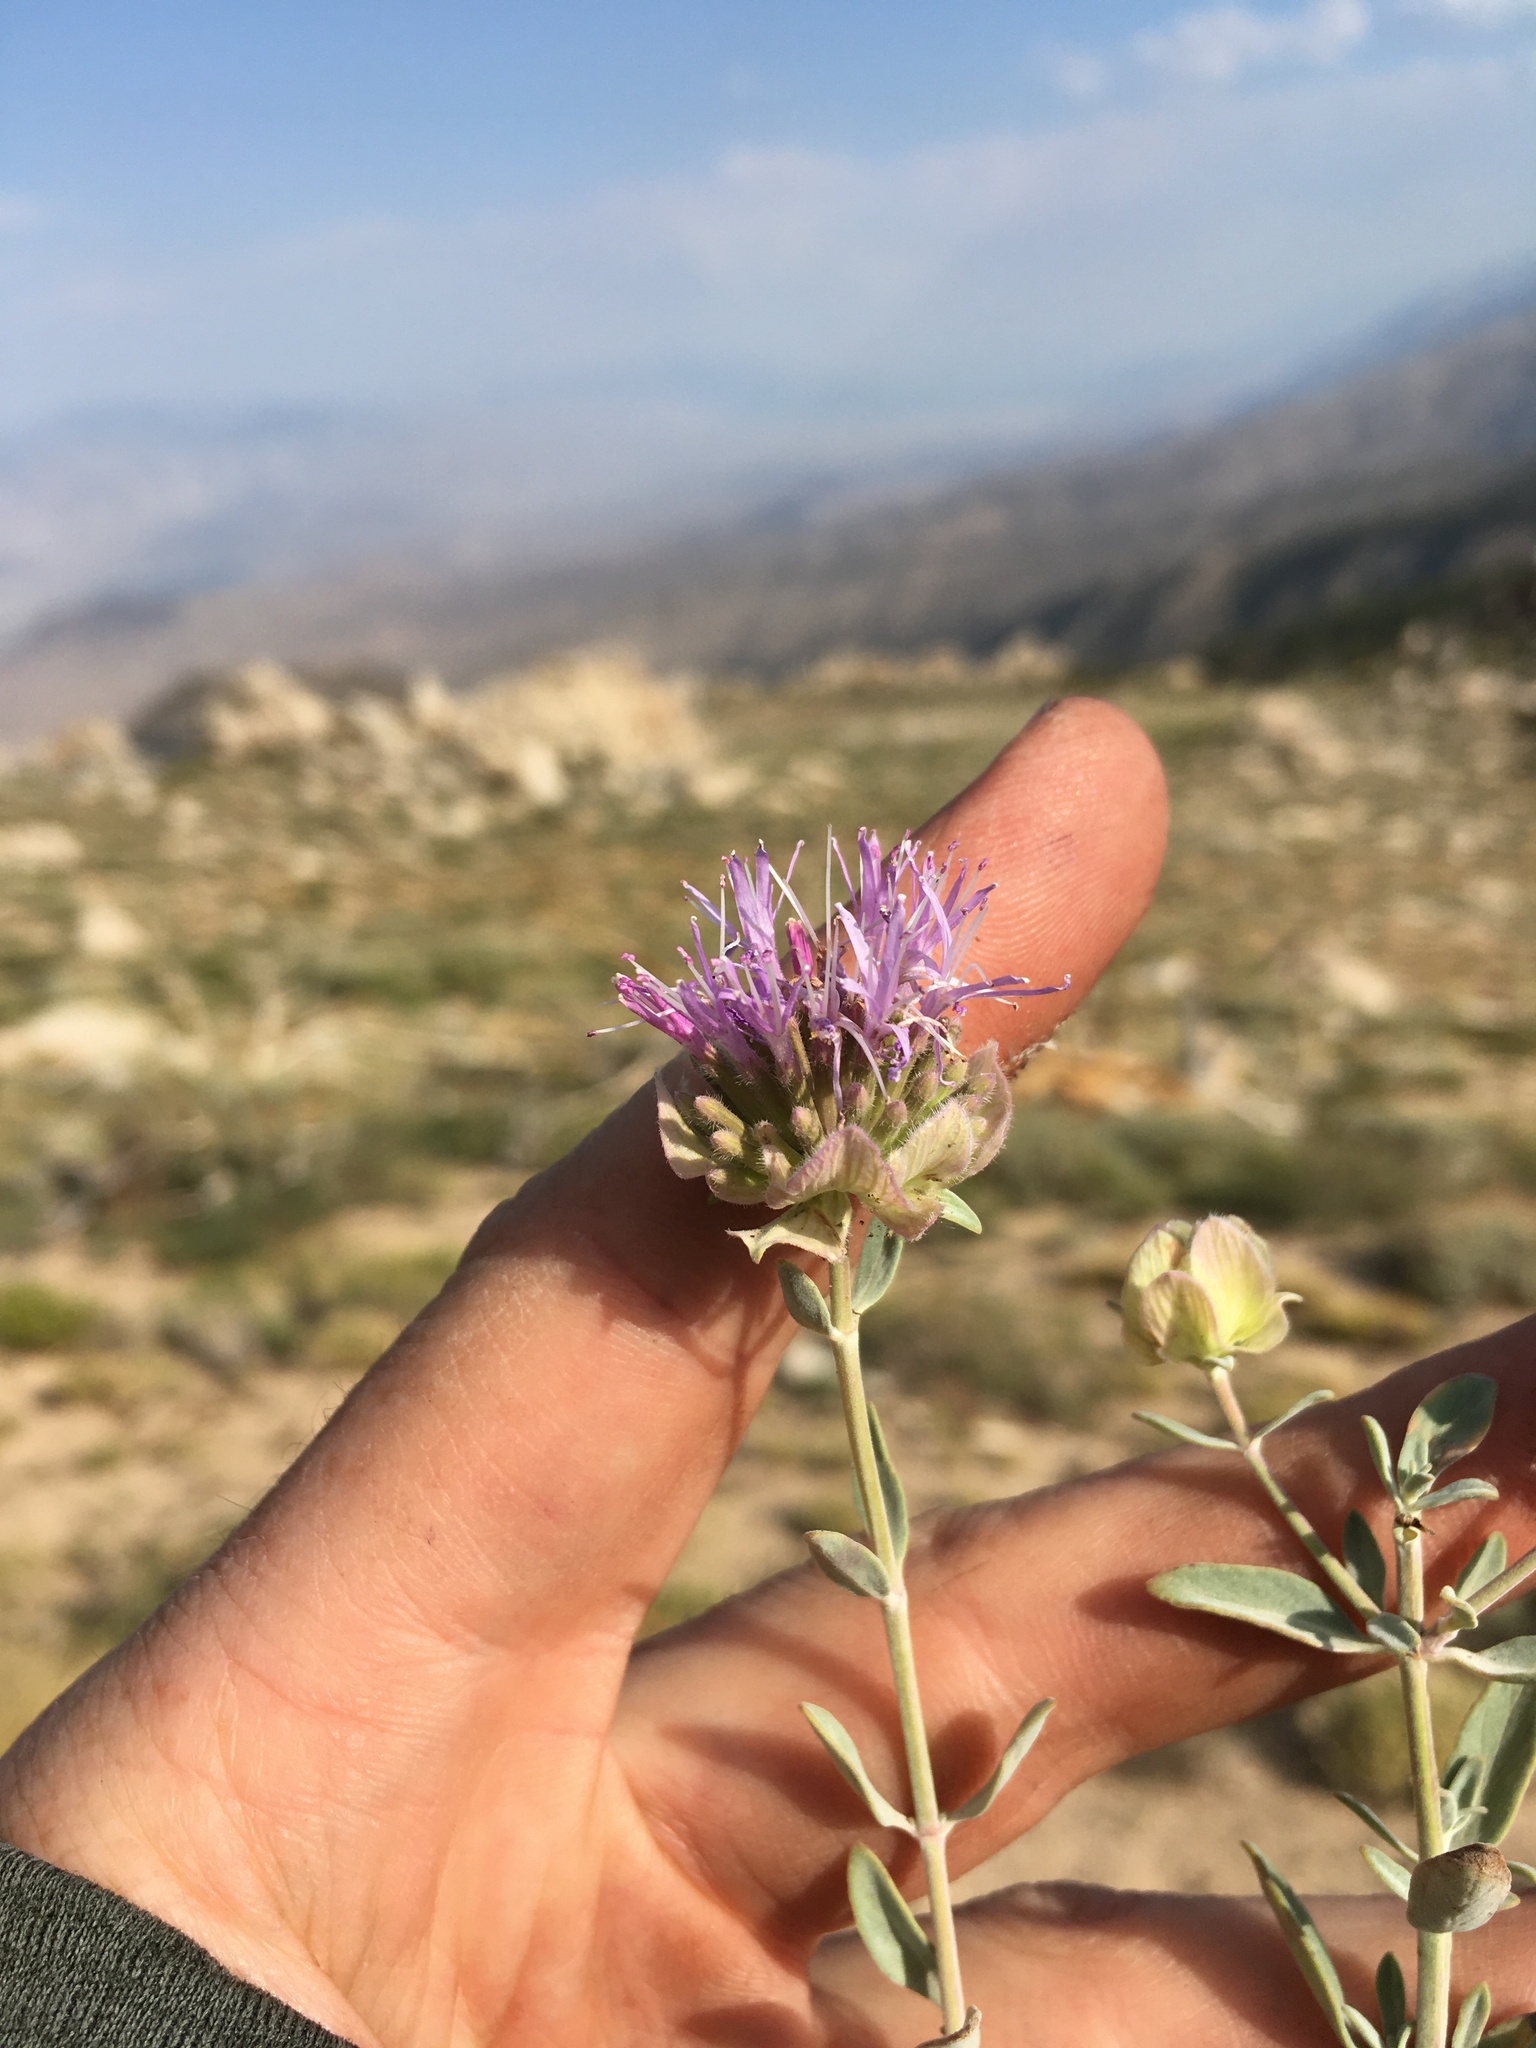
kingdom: Plantae
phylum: Tracheophyta
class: Magnoliopsida
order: Lamiales
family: Lamiaceae
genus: Monardella
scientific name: Monardella linoides
